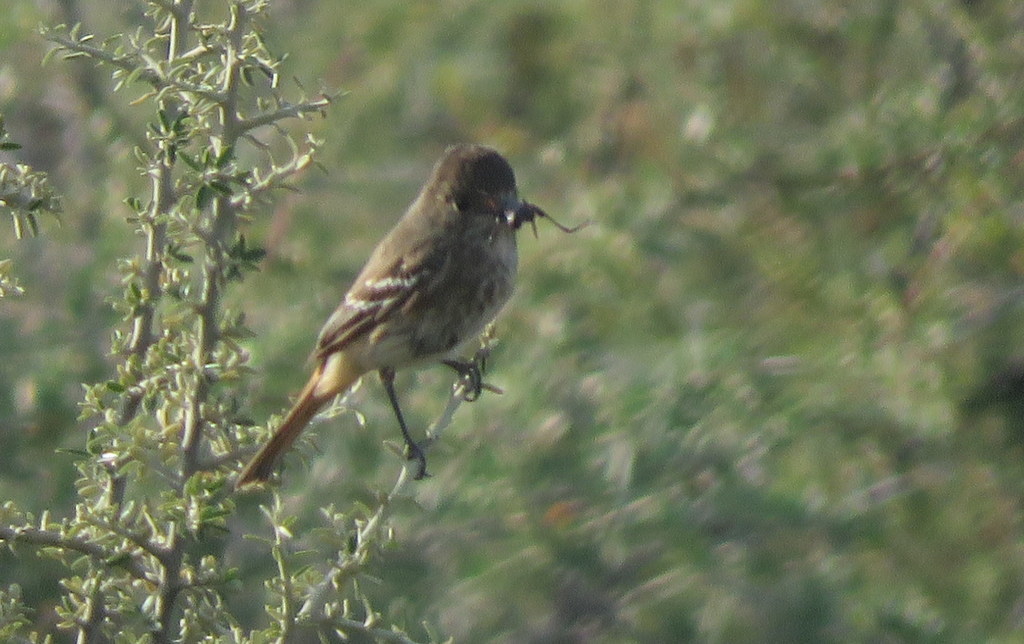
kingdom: Animalia
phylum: Chordata
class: Aves
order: Passeriformes
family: Tyrannidae
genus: Knipolegus
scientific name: Knipolegus hudsoni
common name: Hudson's black tyrant
